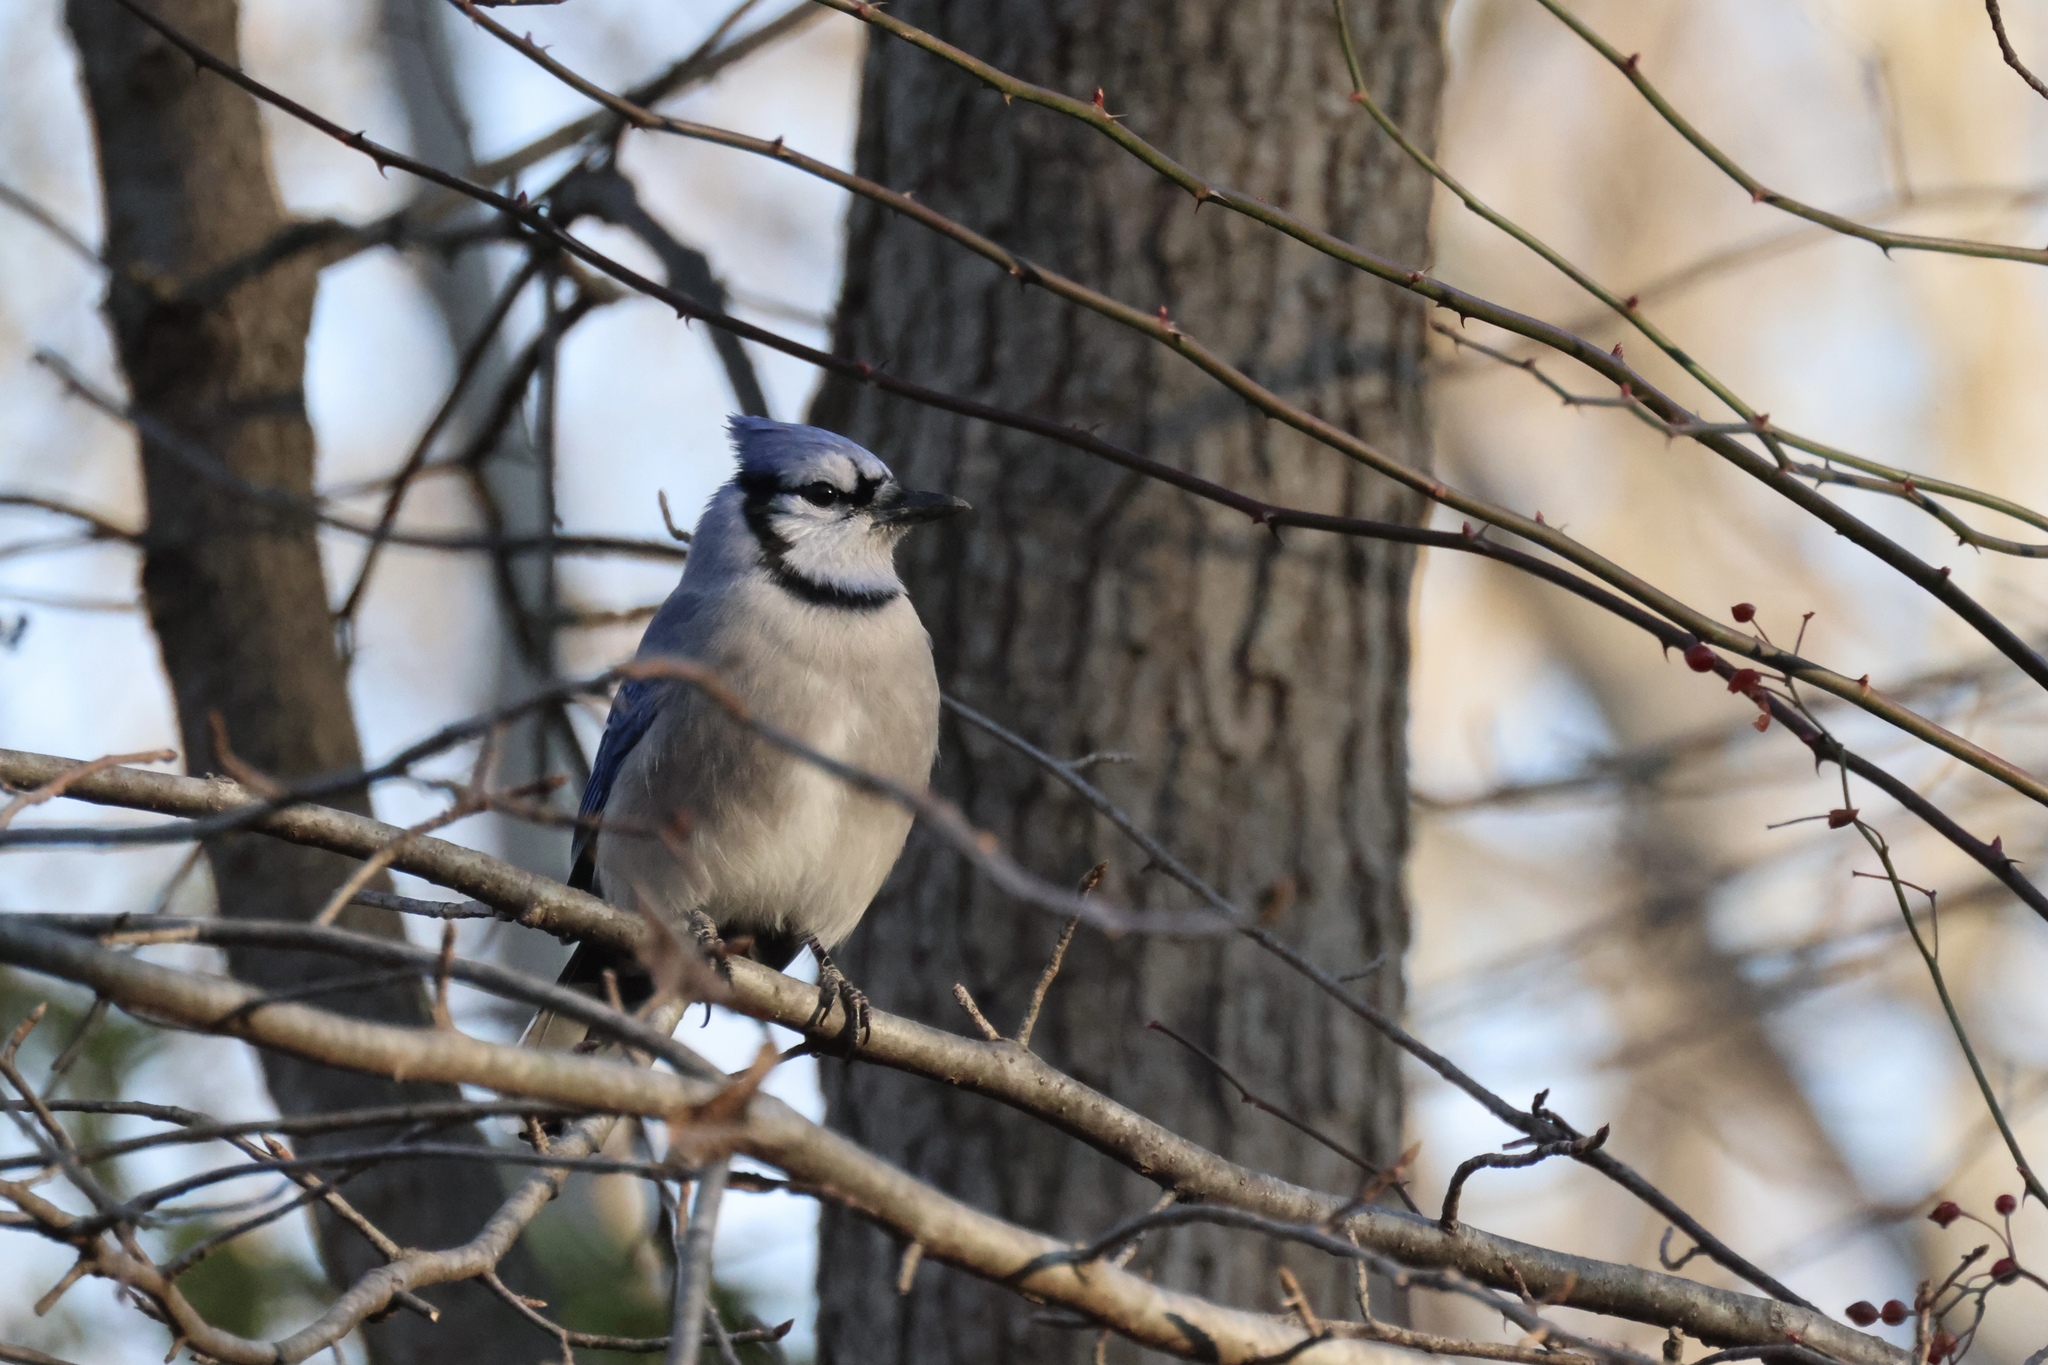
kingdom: Animalia
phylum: Chordata
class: Aves
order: Passeriformes
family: Corvidae
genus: Cyanocitta
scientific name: Cyanocitta cristata
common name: Blue jay
